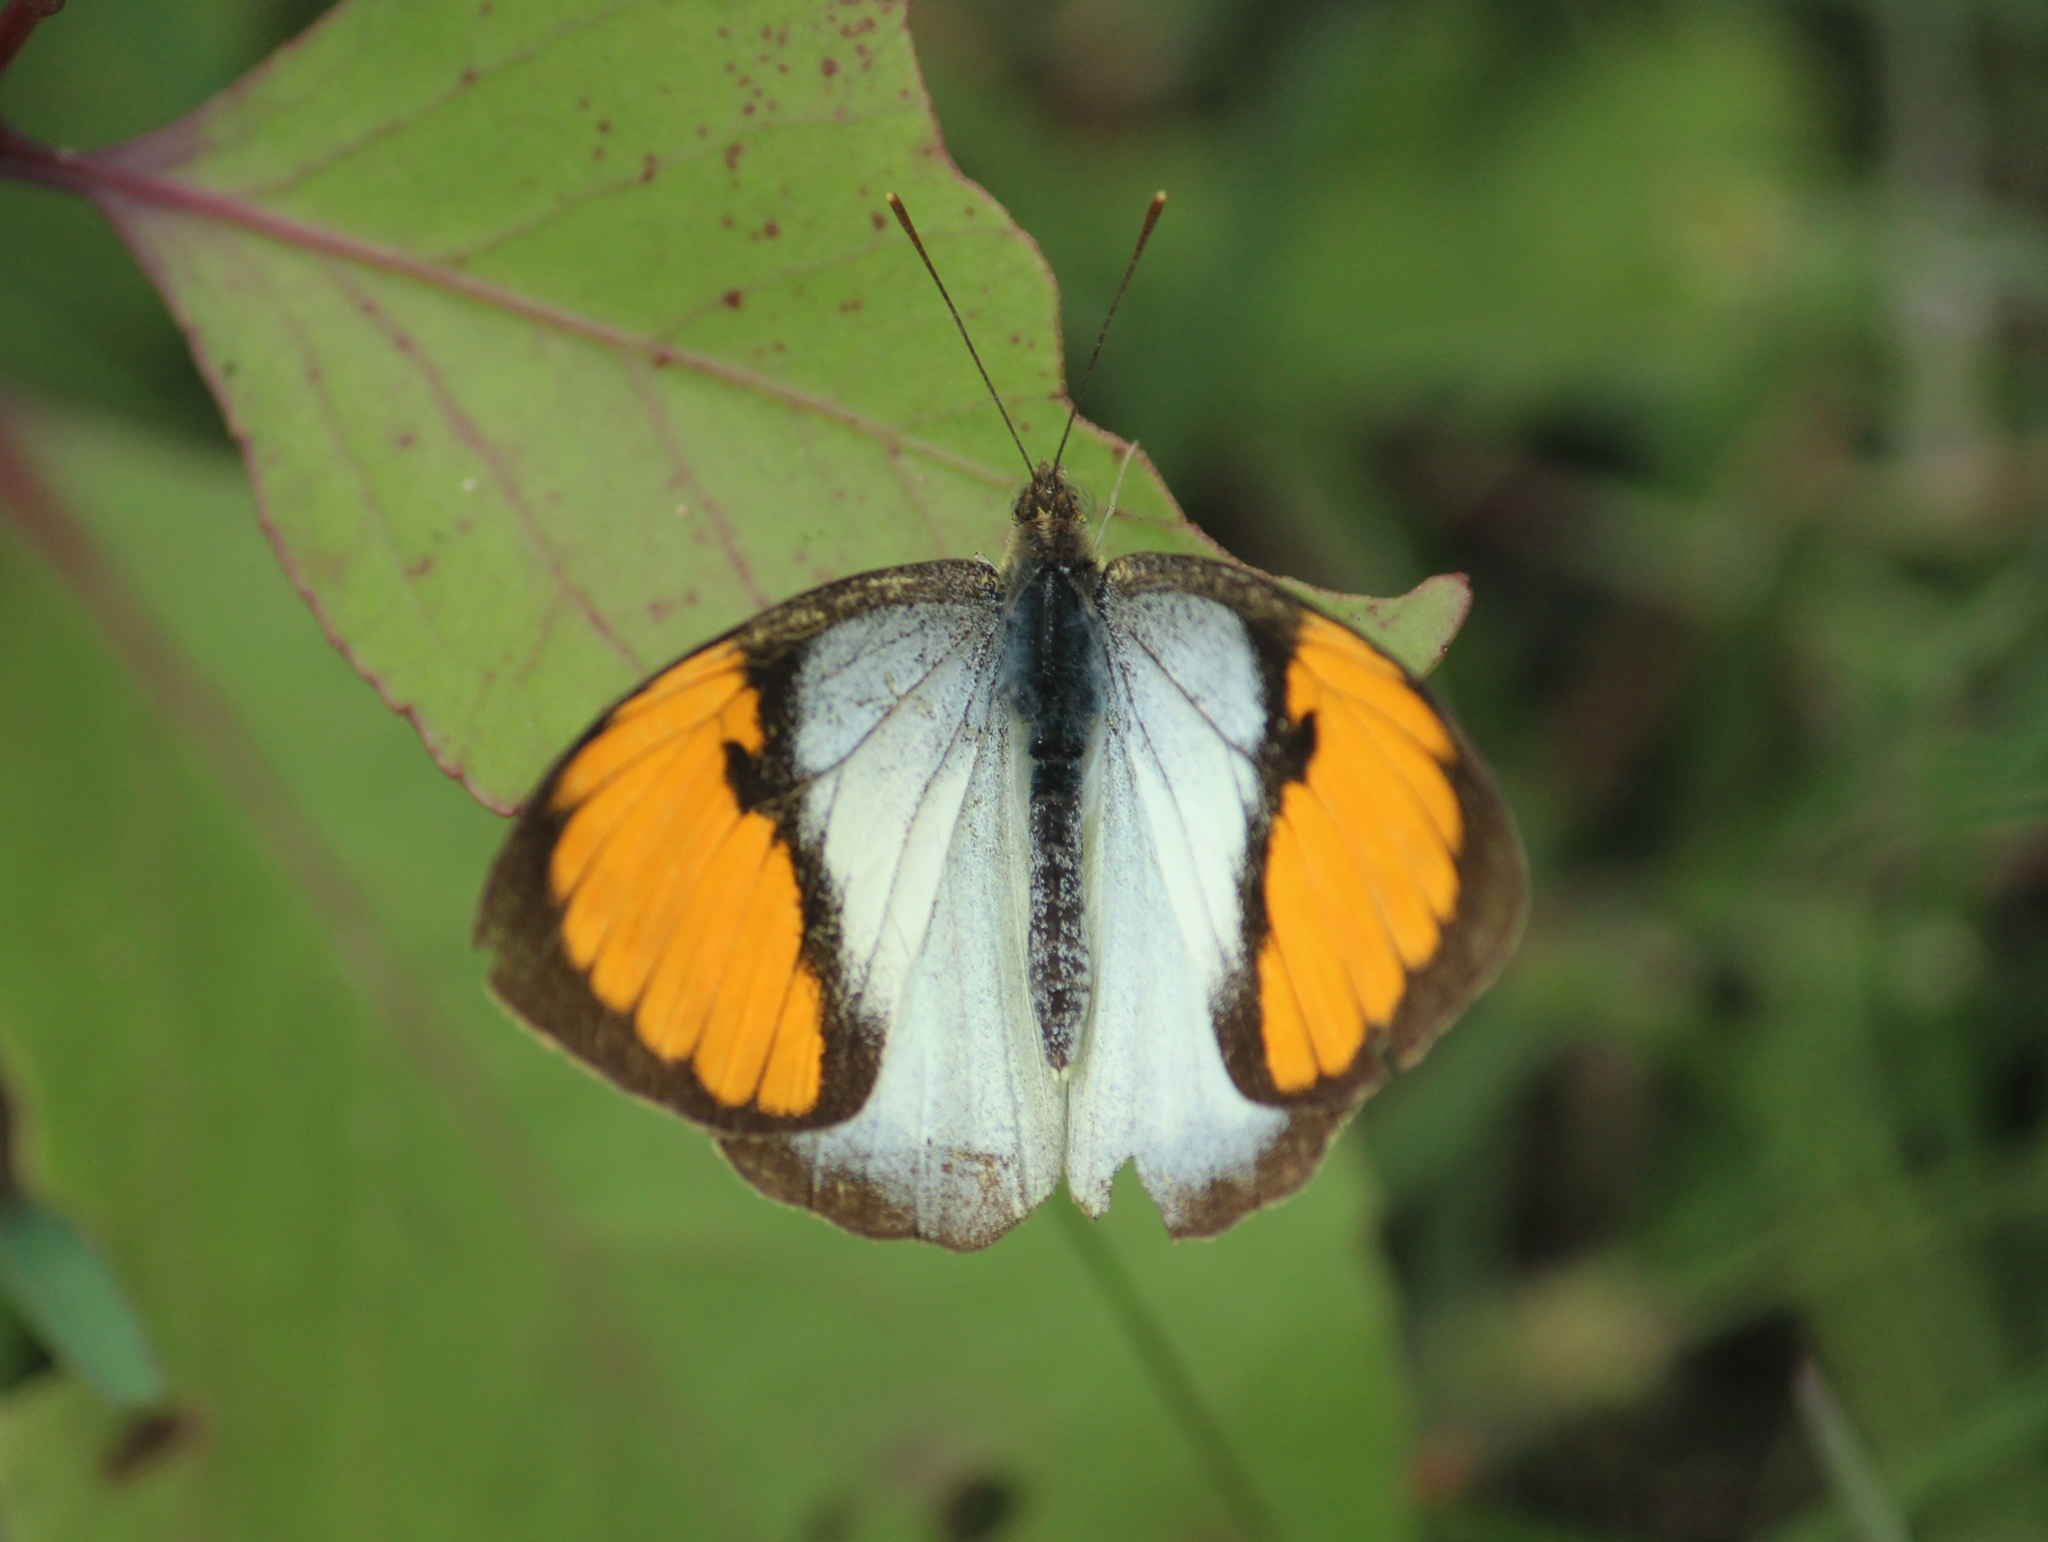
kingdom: Animalia
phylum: Arthropoda
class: Insecta
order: Lepidoptera
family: Pieridae
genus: Ixias
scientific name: Ixias marianne
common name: White orange tip
